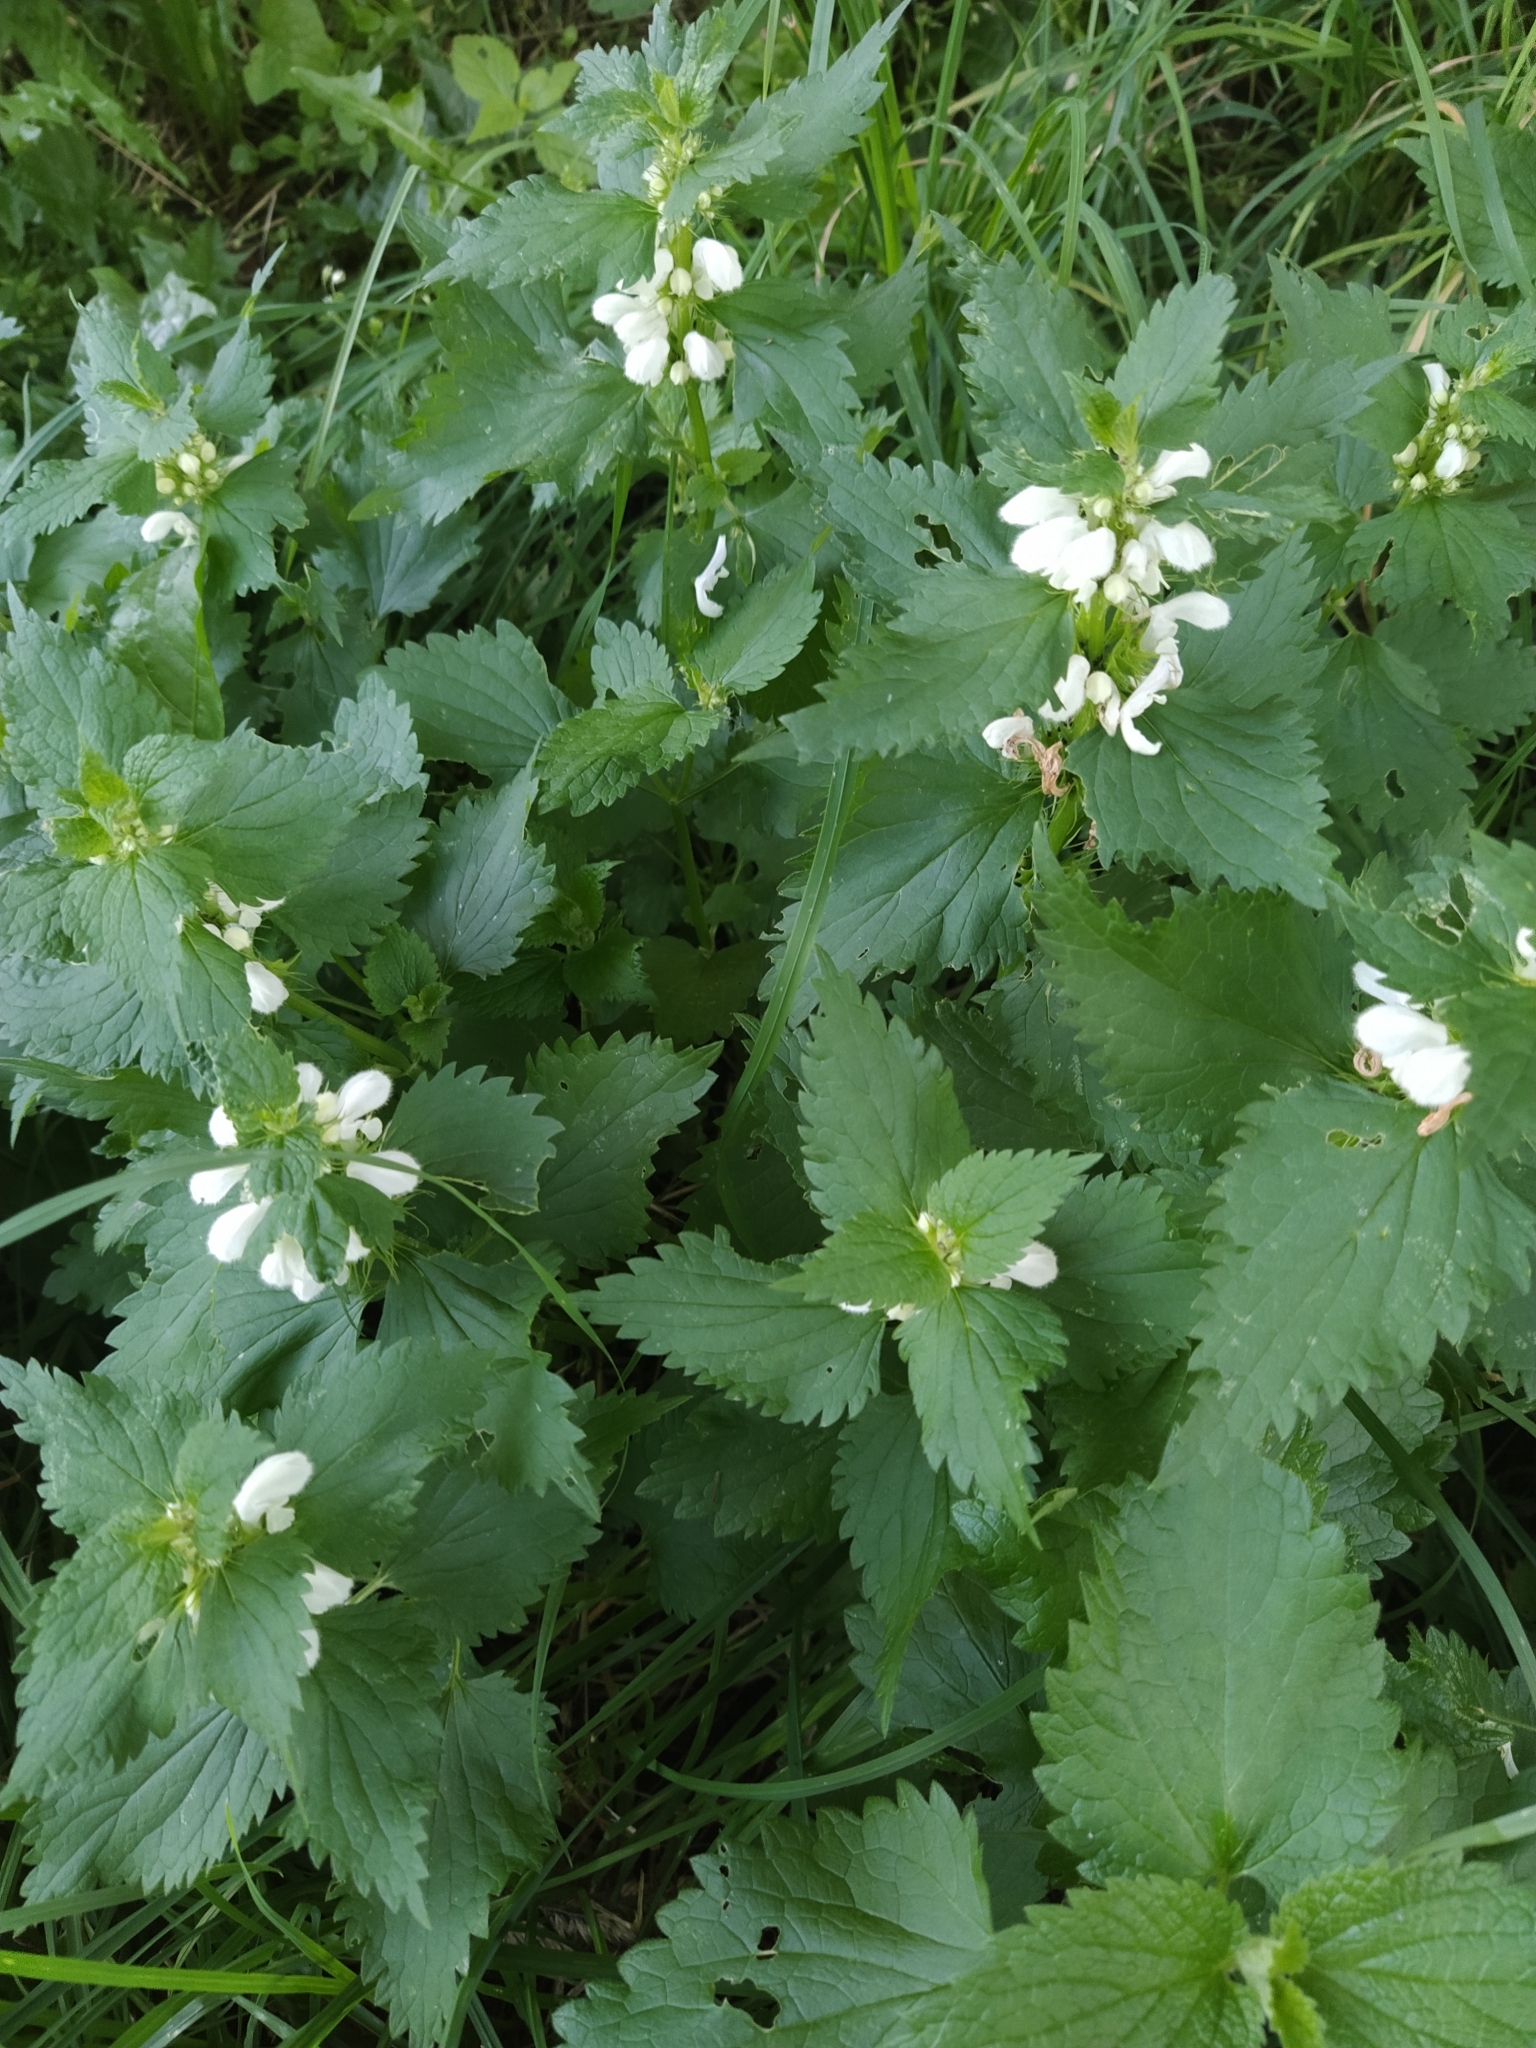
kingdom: Plantae
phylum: Tracheophyta
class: Magnoliopsida
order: Lamiales
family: Lamiaceae
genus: Lamium
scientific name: Lamium album
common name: White dead-nettle
